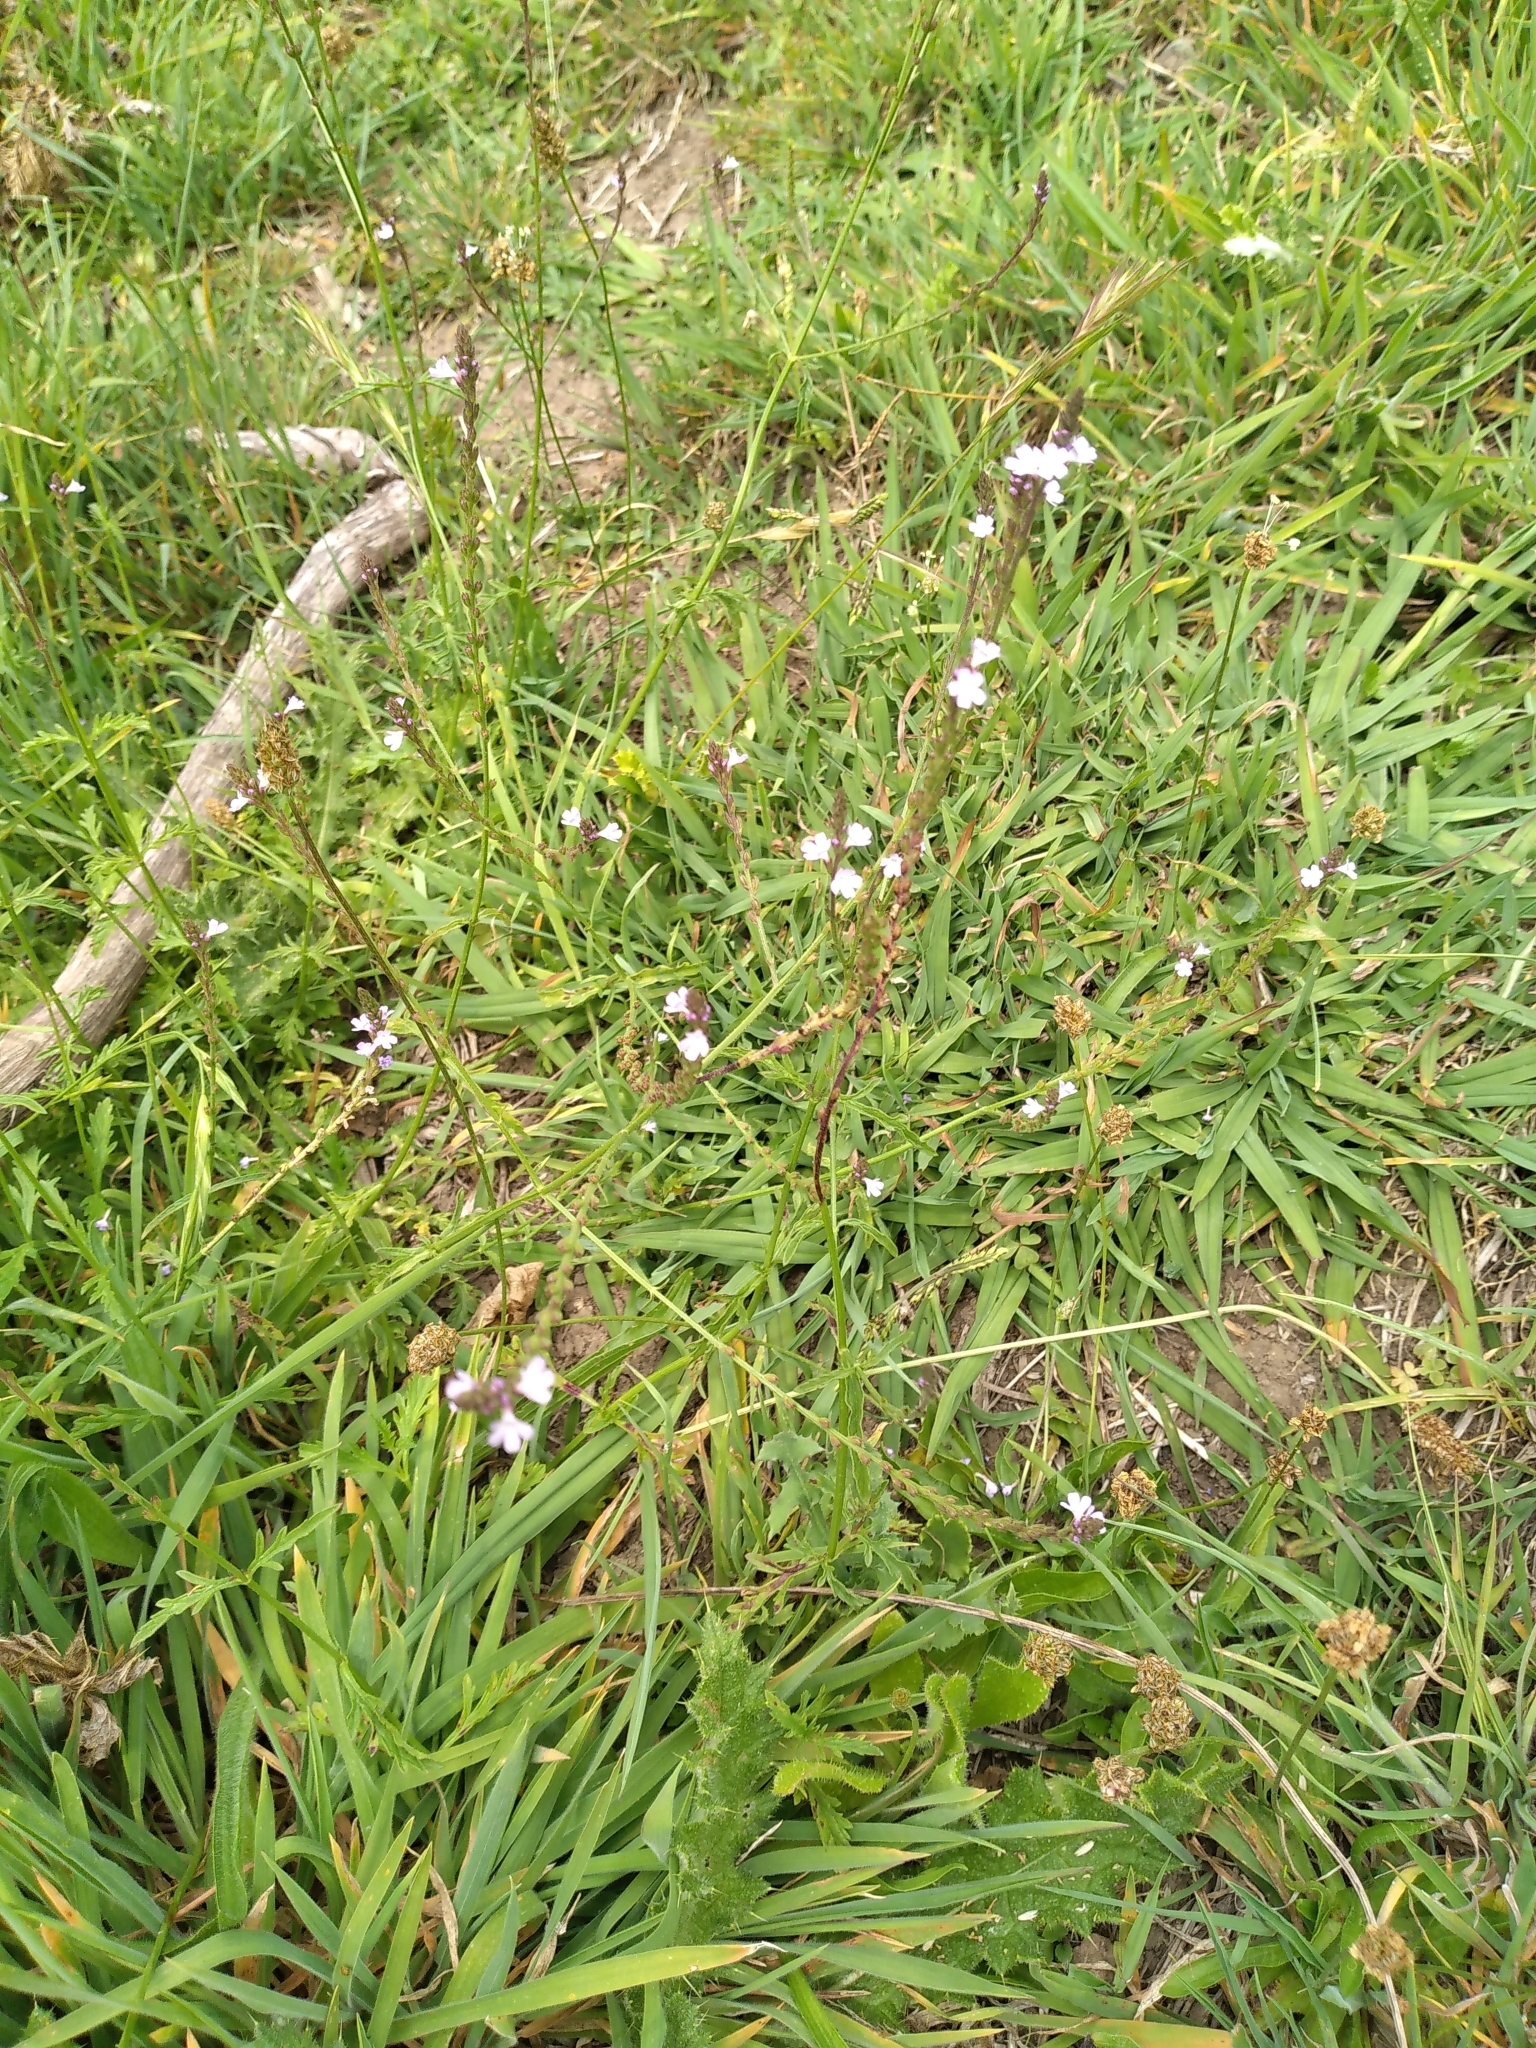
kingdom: Plantae
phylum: Tracheophyta
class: Magnoliopsida
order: Lamiales
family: Verbenaceae
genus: Verbena
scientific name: Verbena officinalis
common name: Vervain
